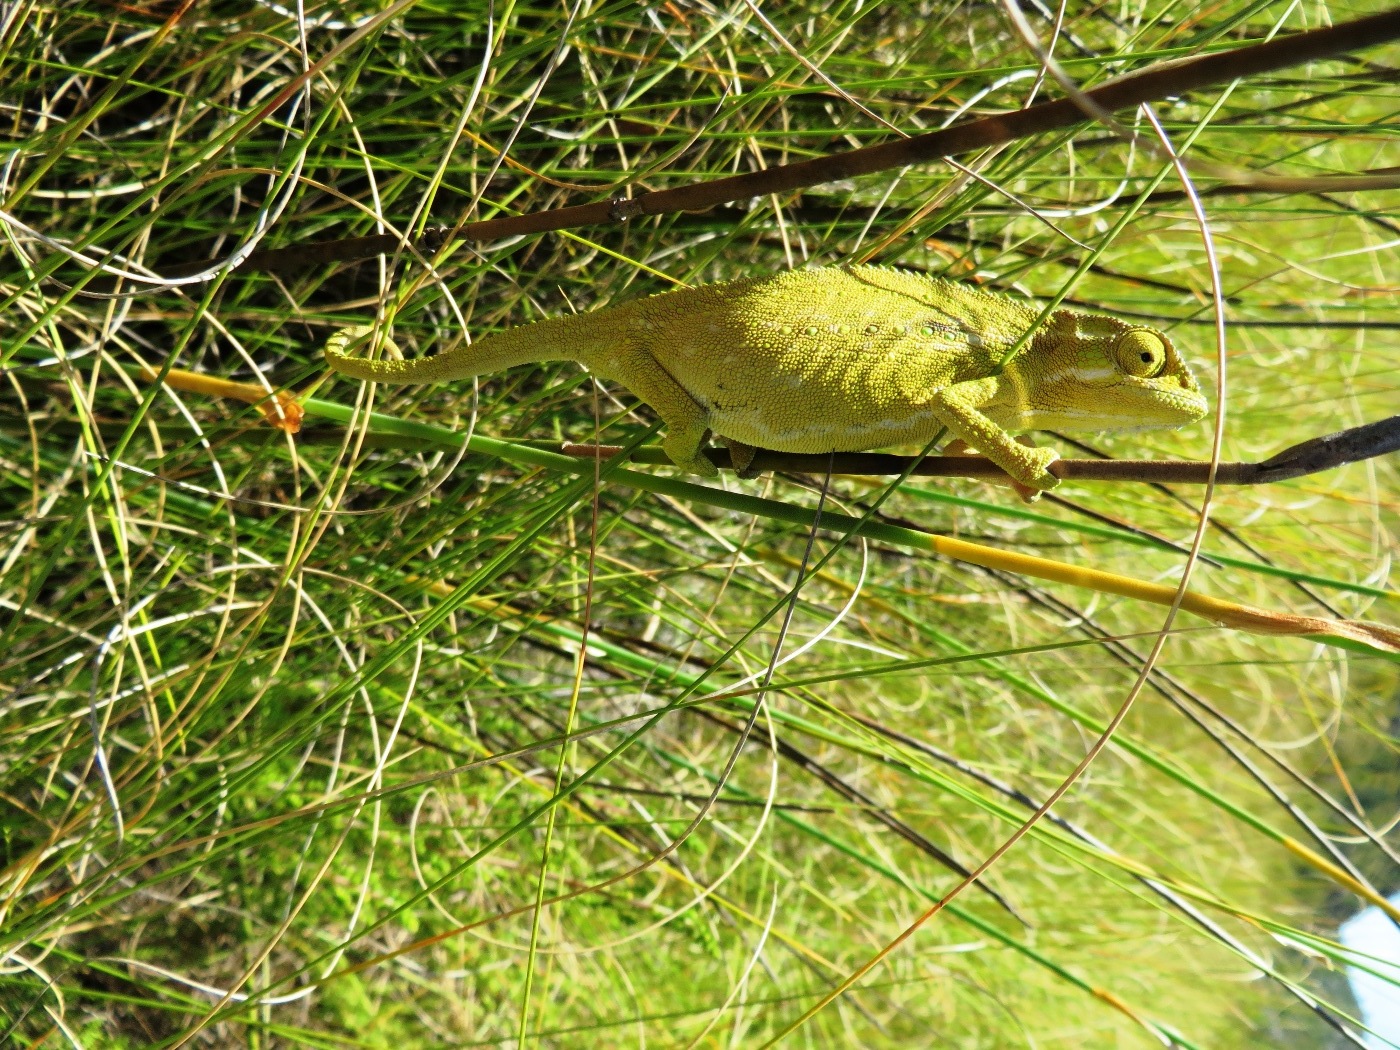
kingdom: Animalia
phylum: Chordata
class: Squamata
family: Chamaeleonidae
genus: Bradypodion
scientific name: Bradypodion pumilum
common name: Cape dwarf chameleon
